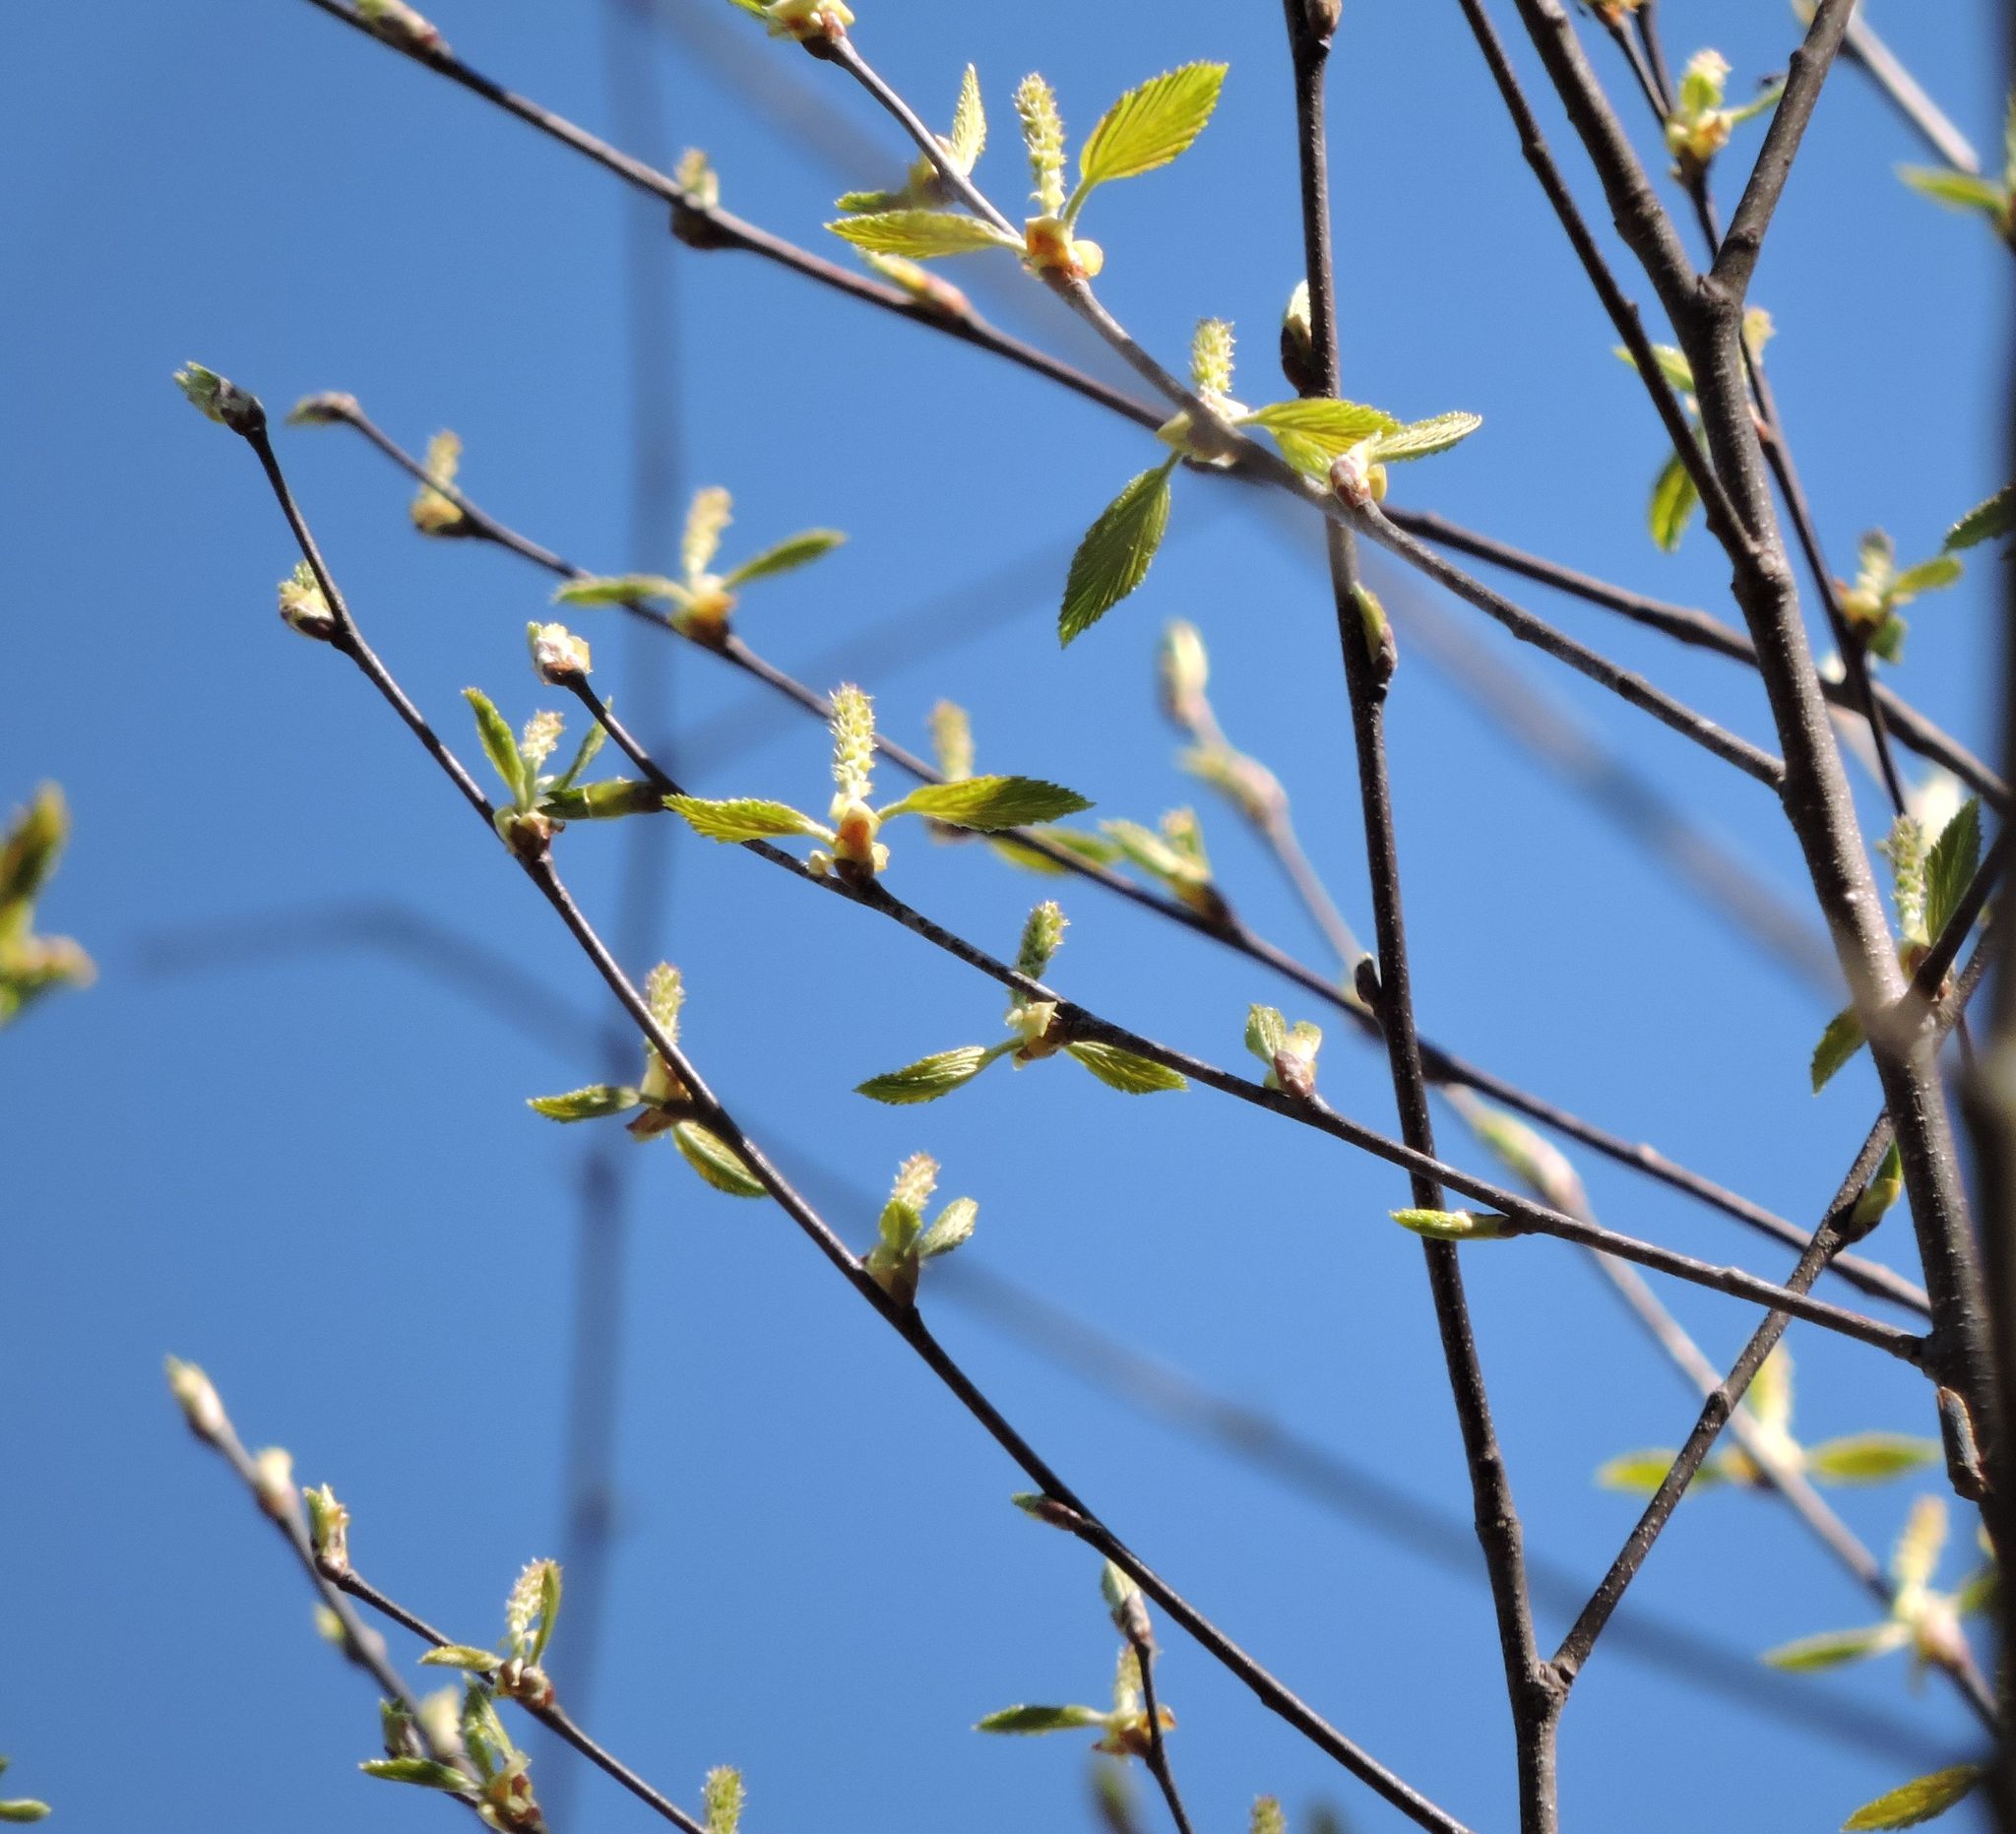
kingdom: Plantae
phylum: Tracheophyta
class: Magnoliopsida
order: Fagales
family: Betulaceae
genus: Betula
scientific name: Betula nigra
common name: Black birch
